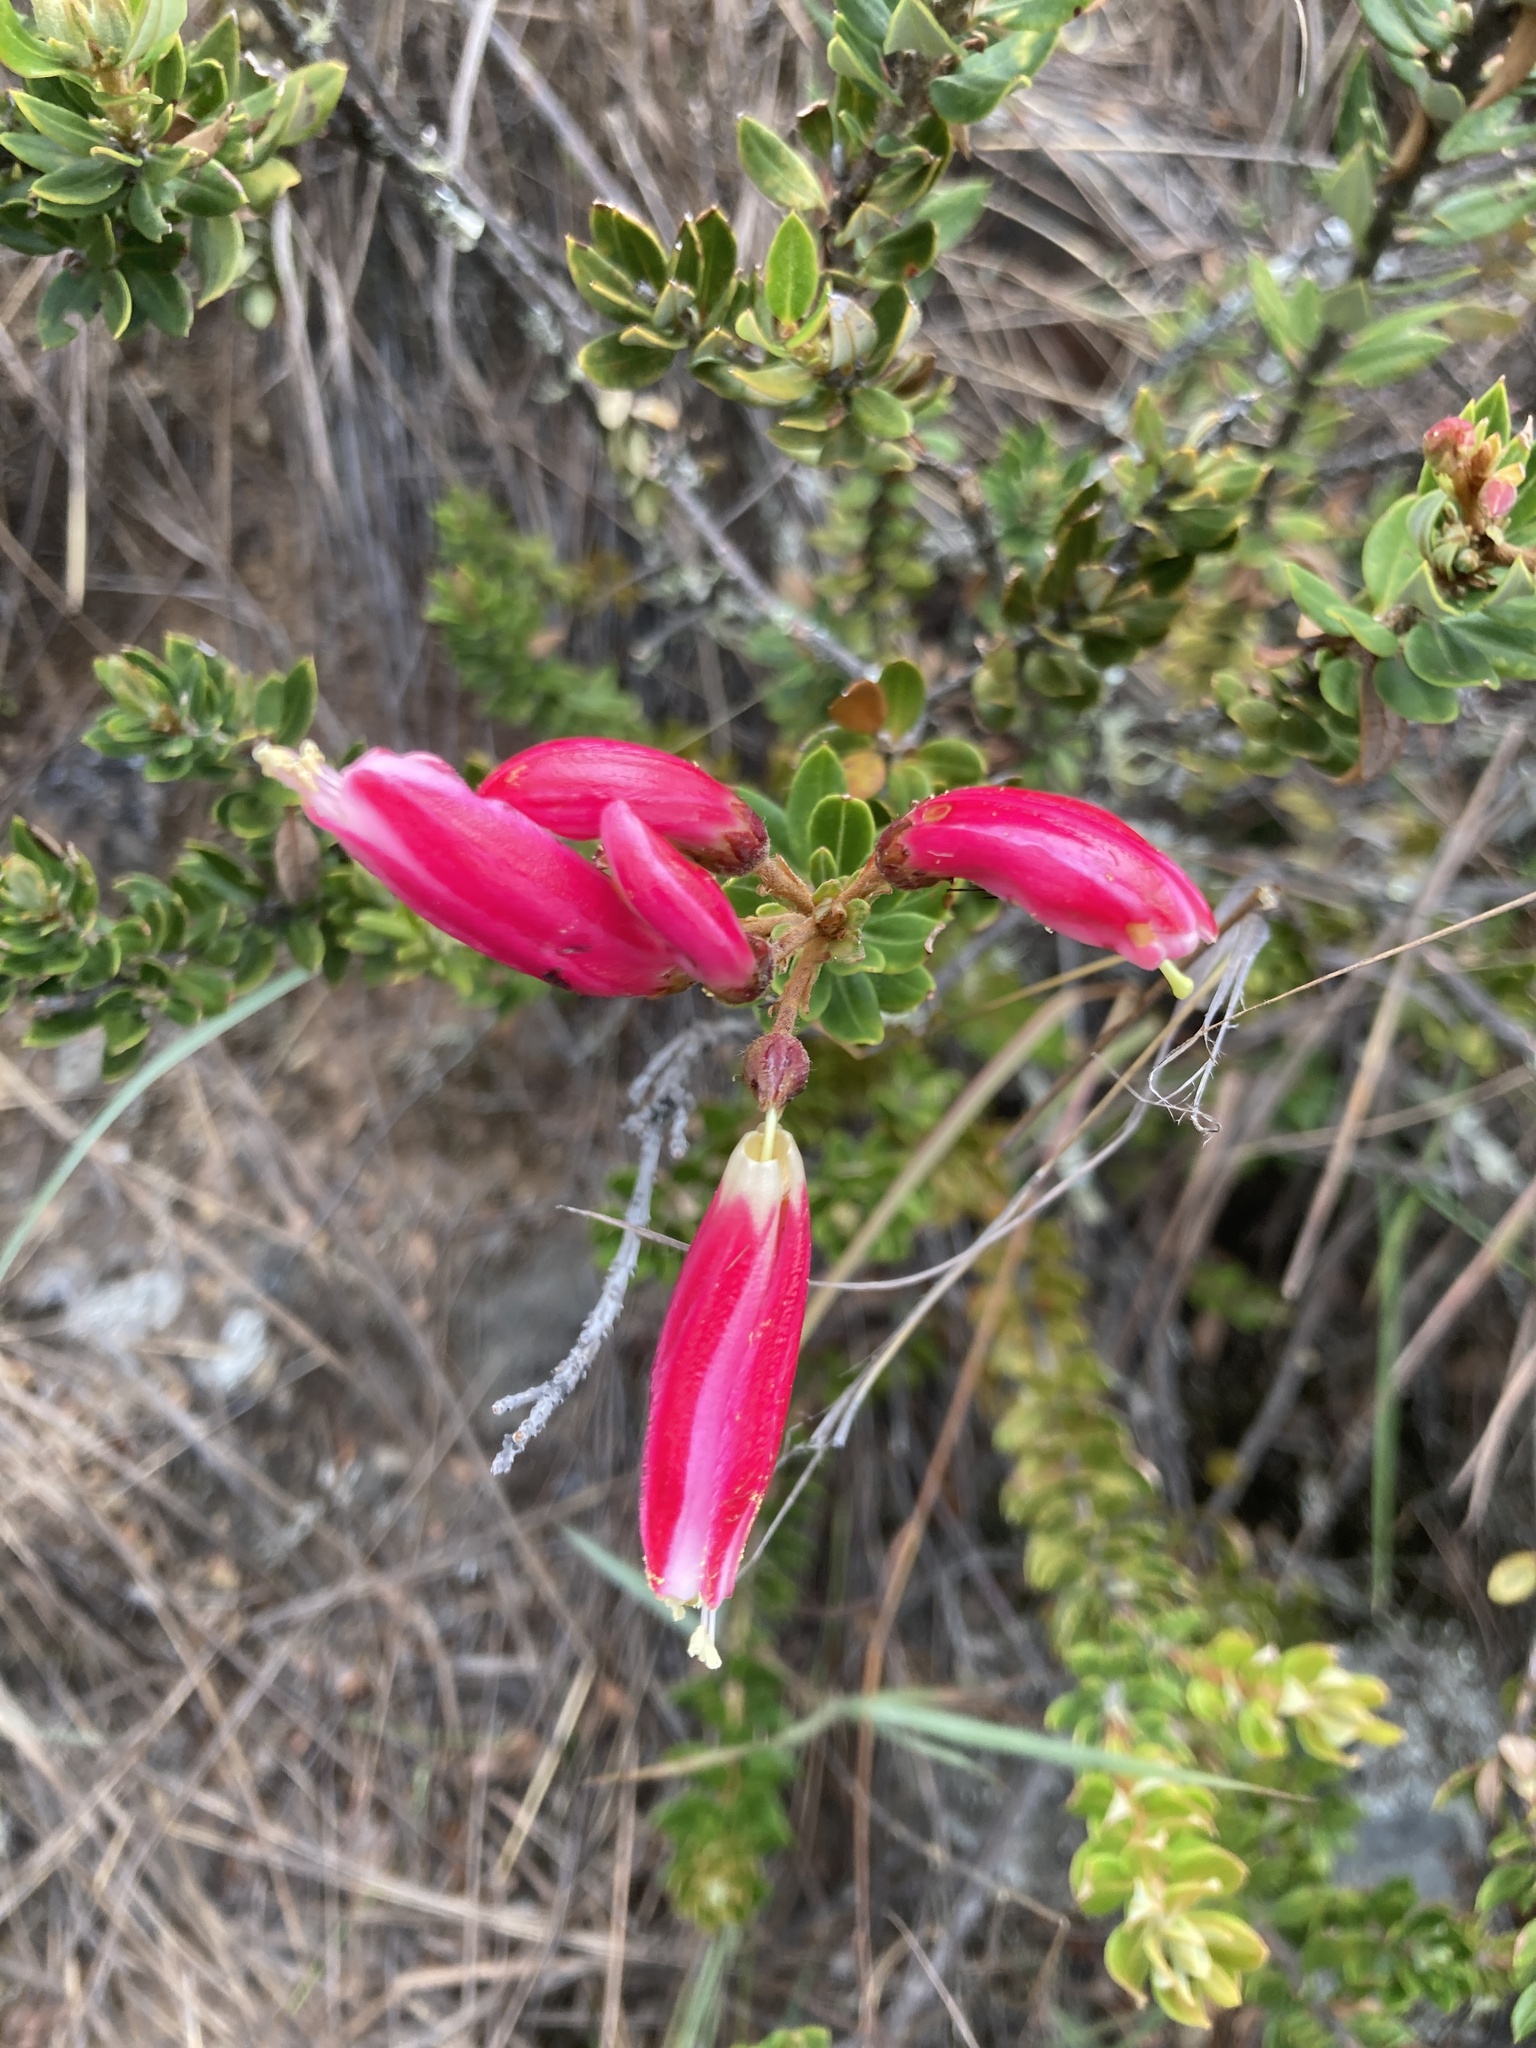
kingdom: Plantae
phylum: Tracheophyta
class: Magnoliopsida
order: Ericales
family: Ericaceae
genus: Bejaria
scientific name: Bejaria mathewsii
